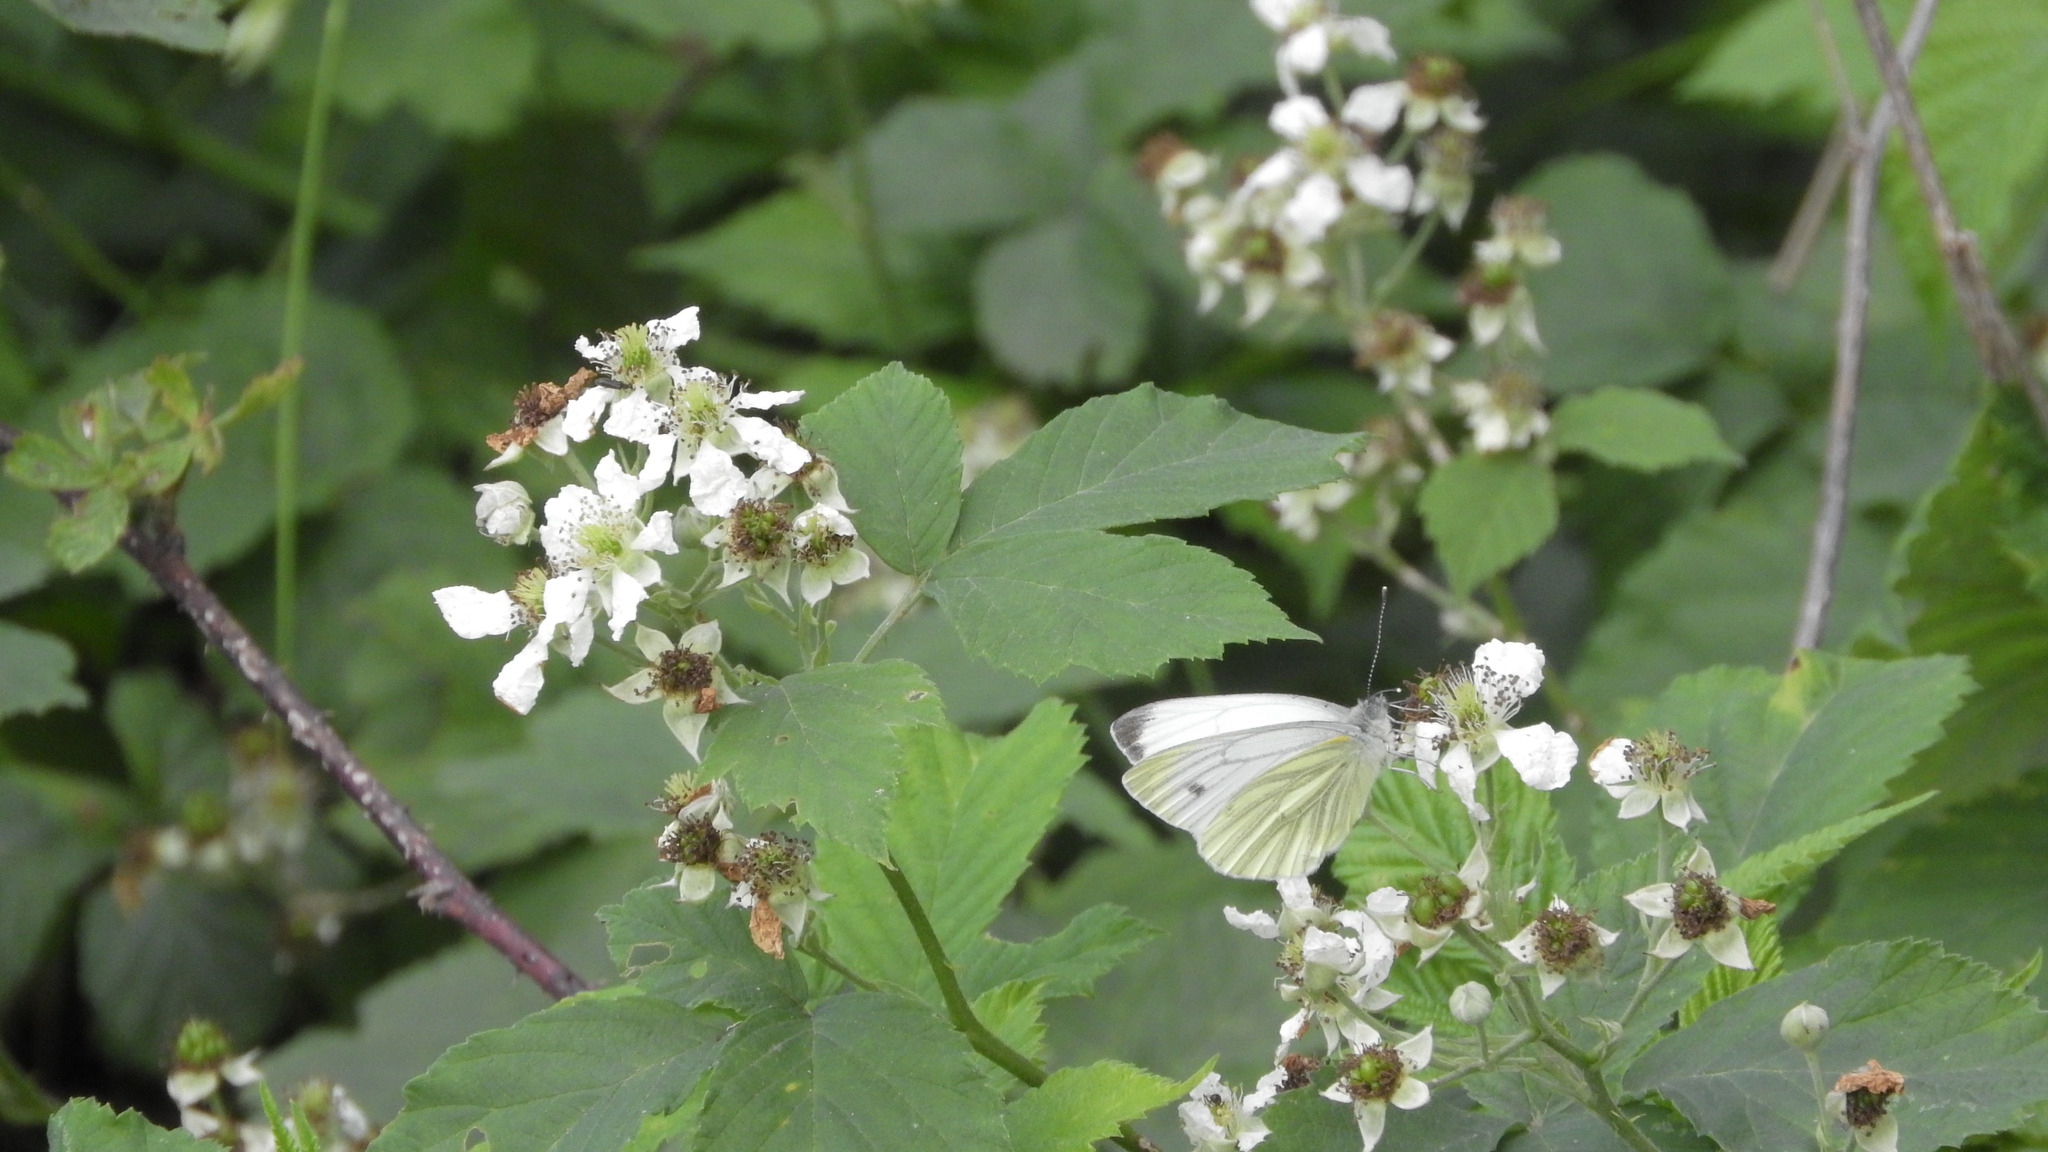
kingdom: Animalia
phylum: Arthropoda
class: Insecta
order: Lepidoptera
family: Pieridae
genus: Pieris
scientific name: Pieris napi
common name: Green-veined white
